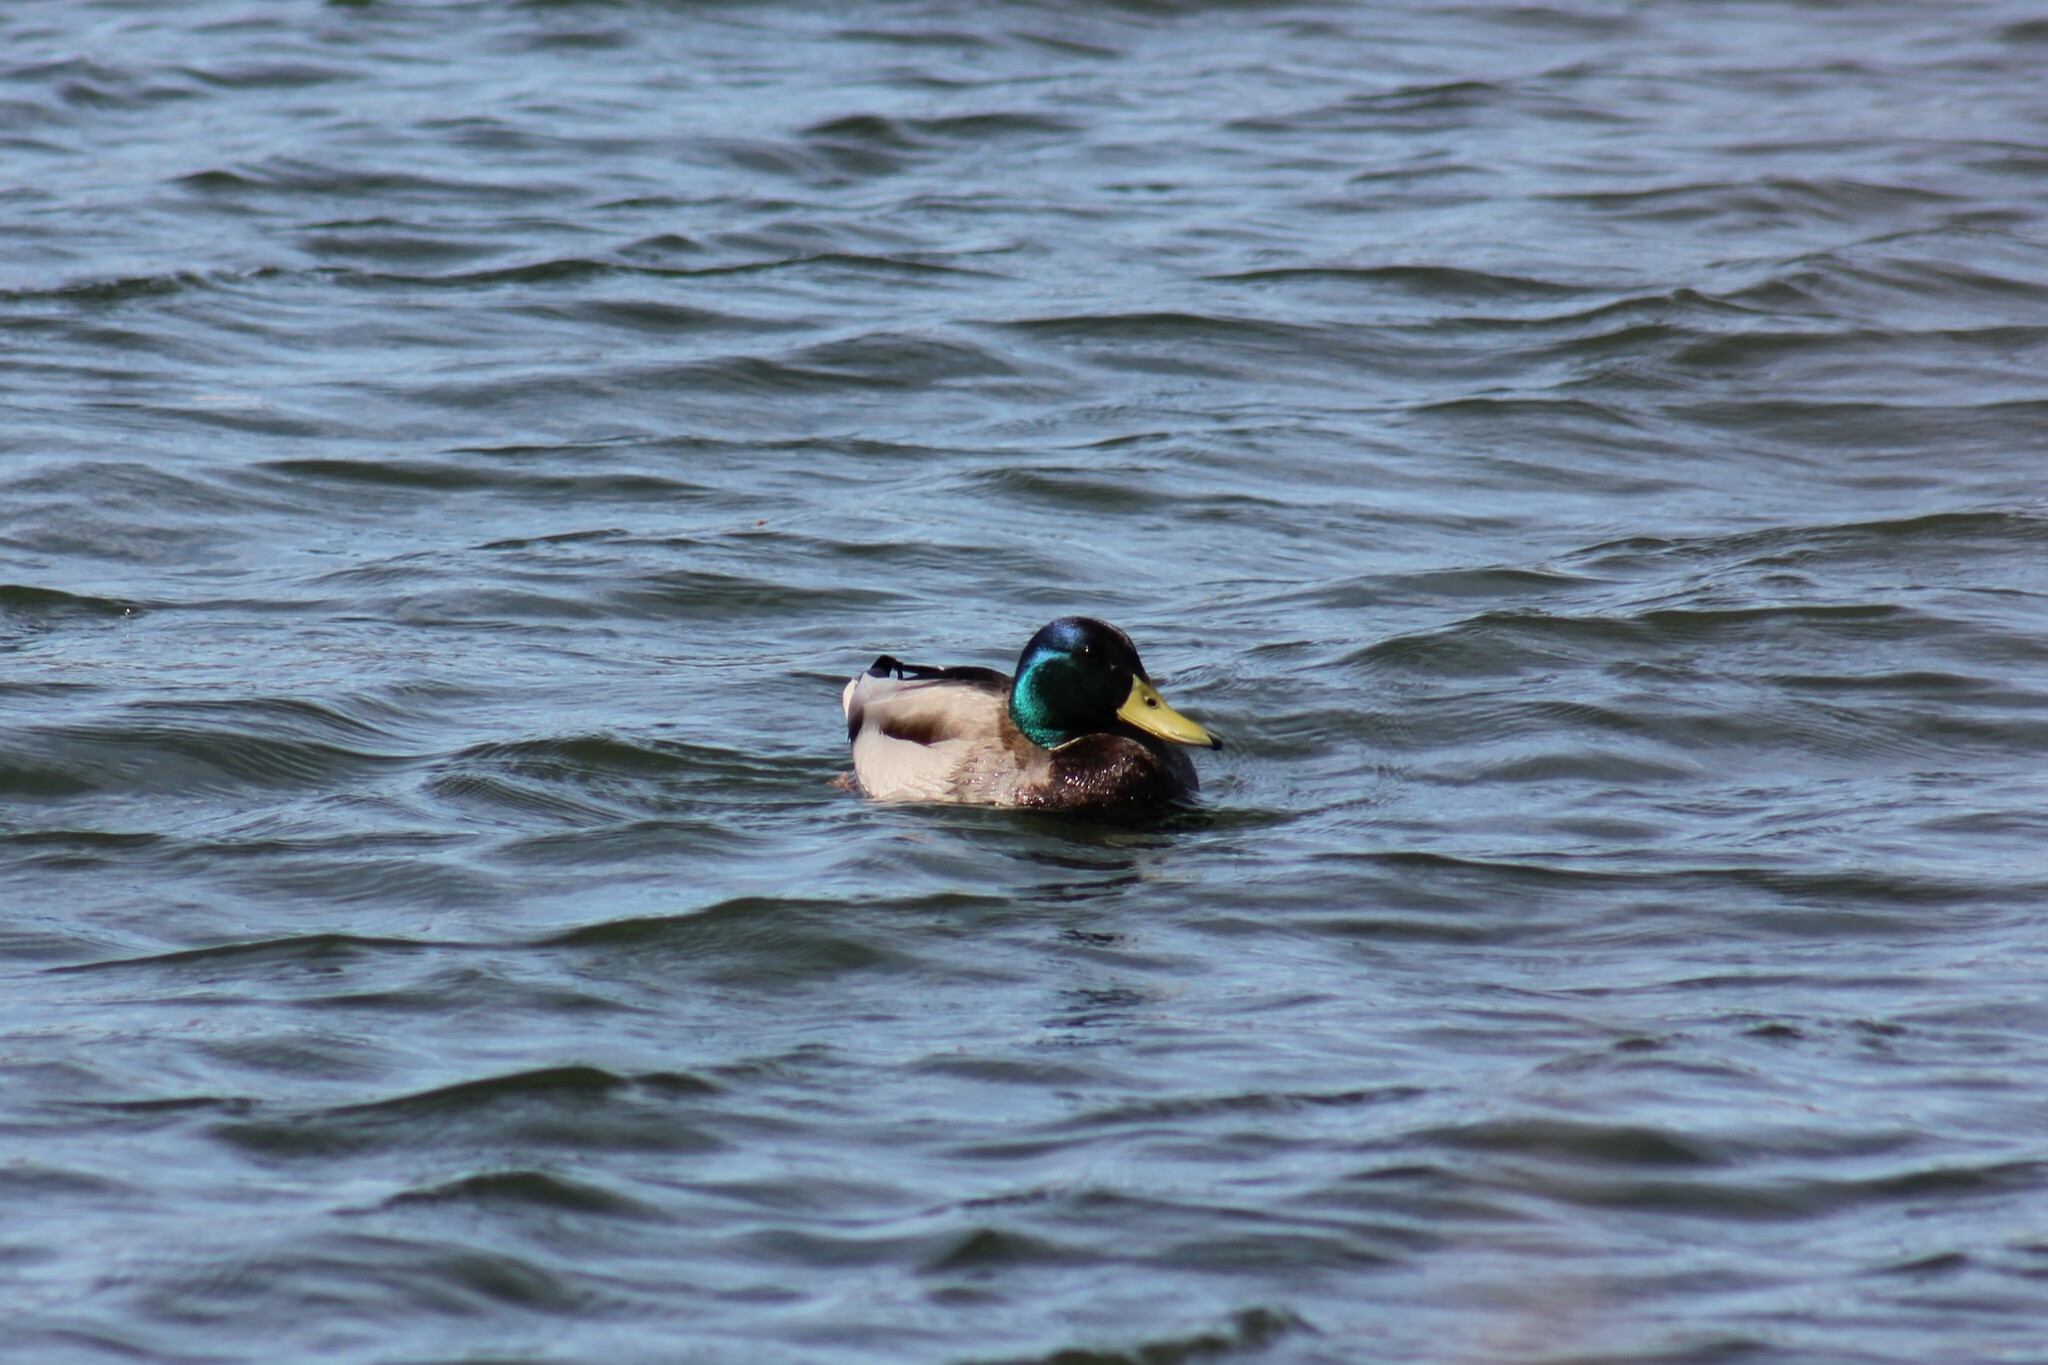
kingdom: Animalia
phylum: Chordata
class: Aves
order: Anseriformes
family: Anatidae
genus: Anas
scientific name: Anas platyrhynchos
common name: Mallard
